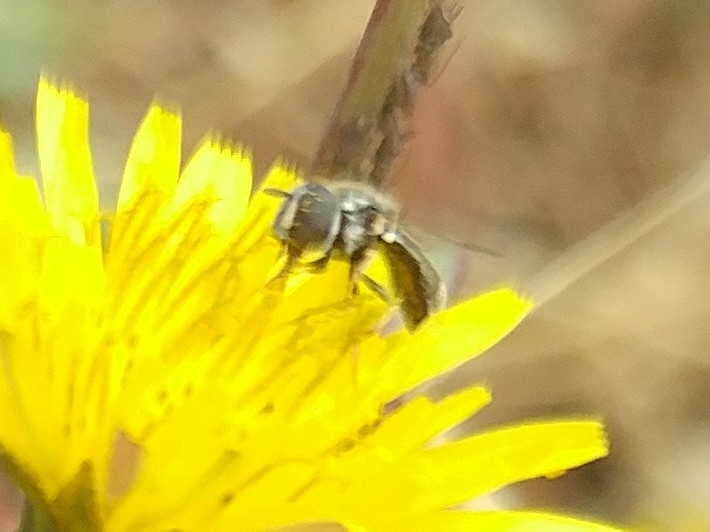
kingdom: Animalia
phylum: Arthropoda
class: Insecta
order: Diptera
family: Syrphidae
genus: Paragus
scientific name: Paragus haemorrhous
